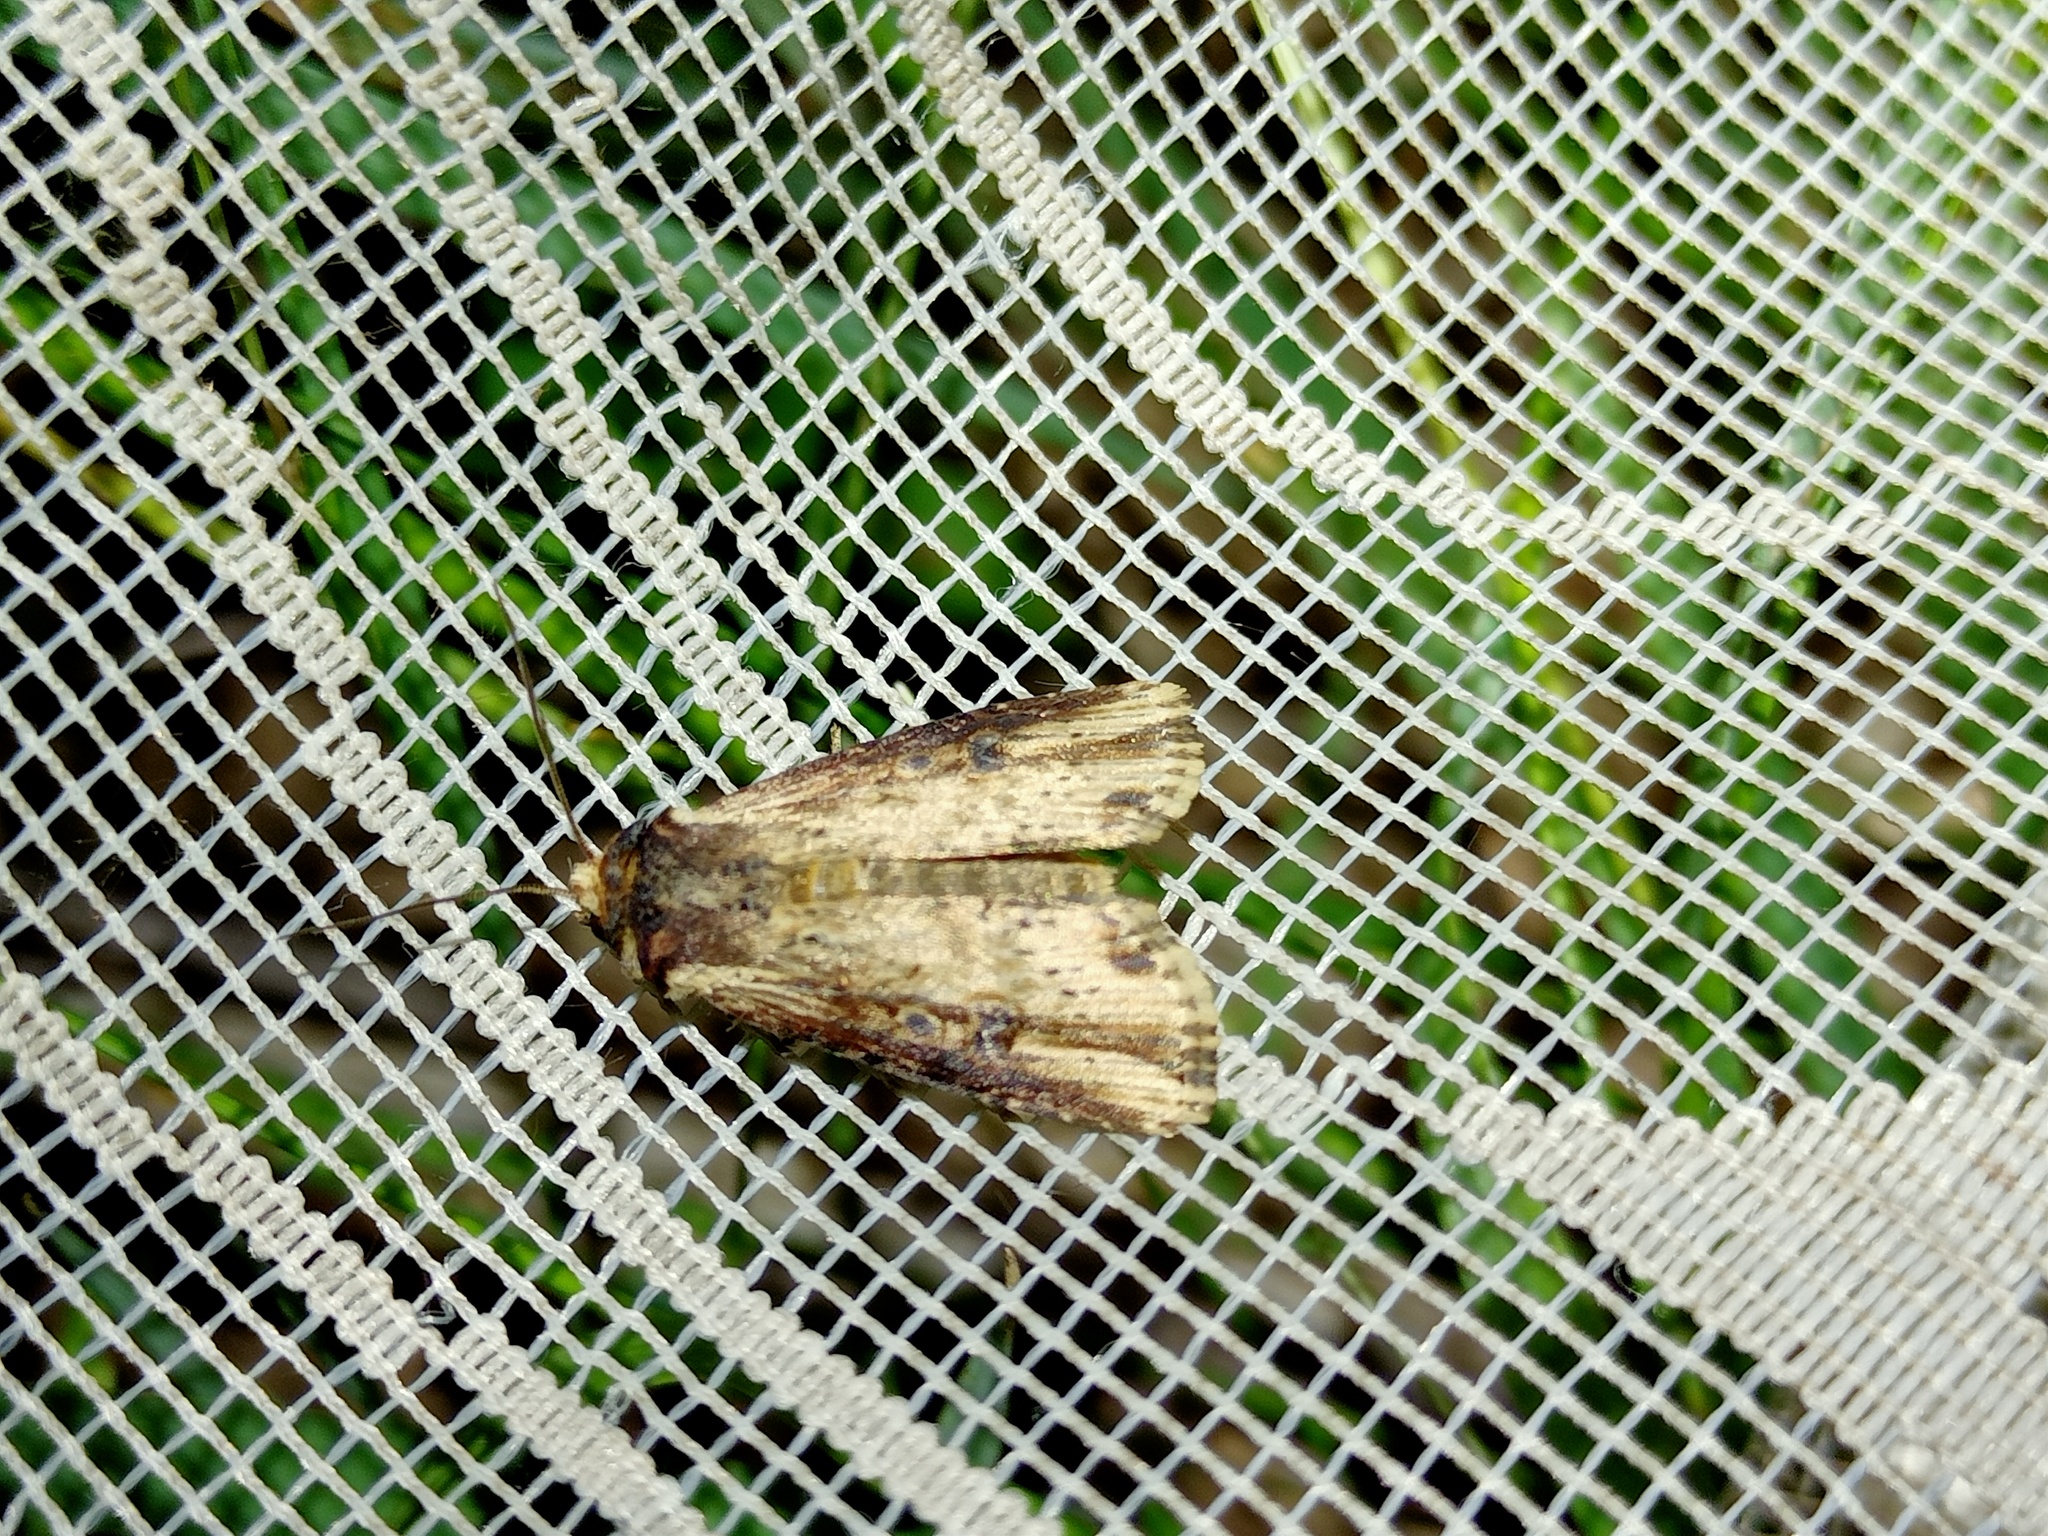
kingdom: Animalia
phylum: Arthropoda
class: Insecta
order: Lepidoptera
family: Noctuidae
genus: Axylia
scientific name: Axylia putris
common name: Flame
